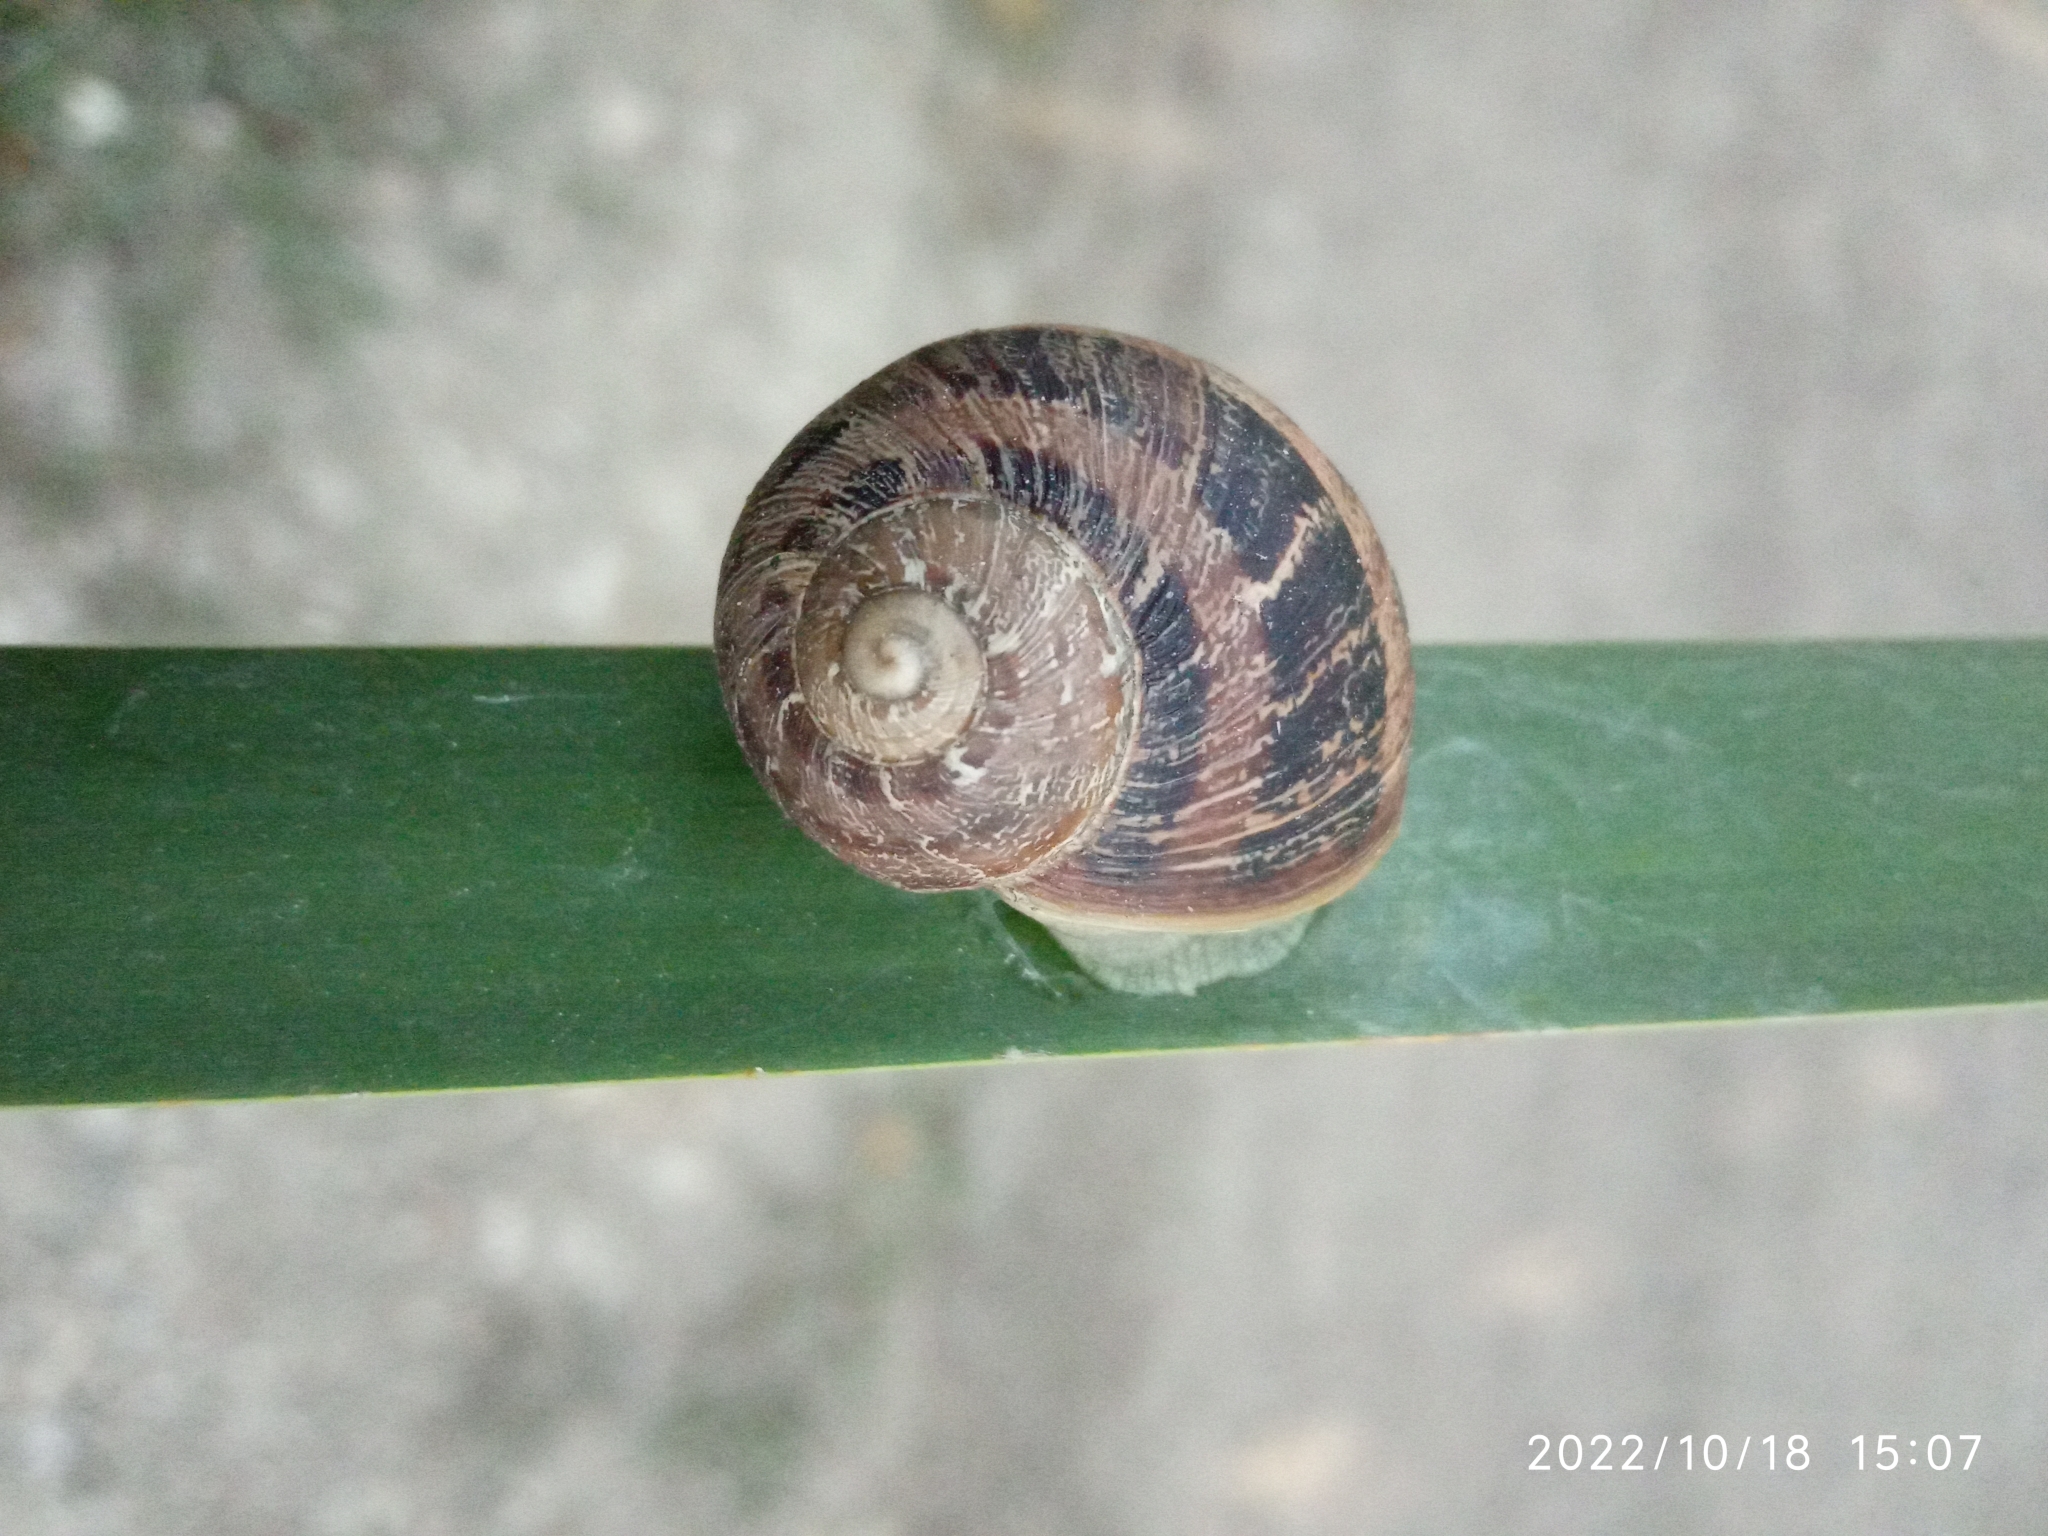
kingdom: Animalia
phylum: Mollusca
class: Gastropoda
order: Stylommatophora
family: Helicidae
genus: Cornu
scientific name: Cornu aspersum
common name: Brown garden snail
